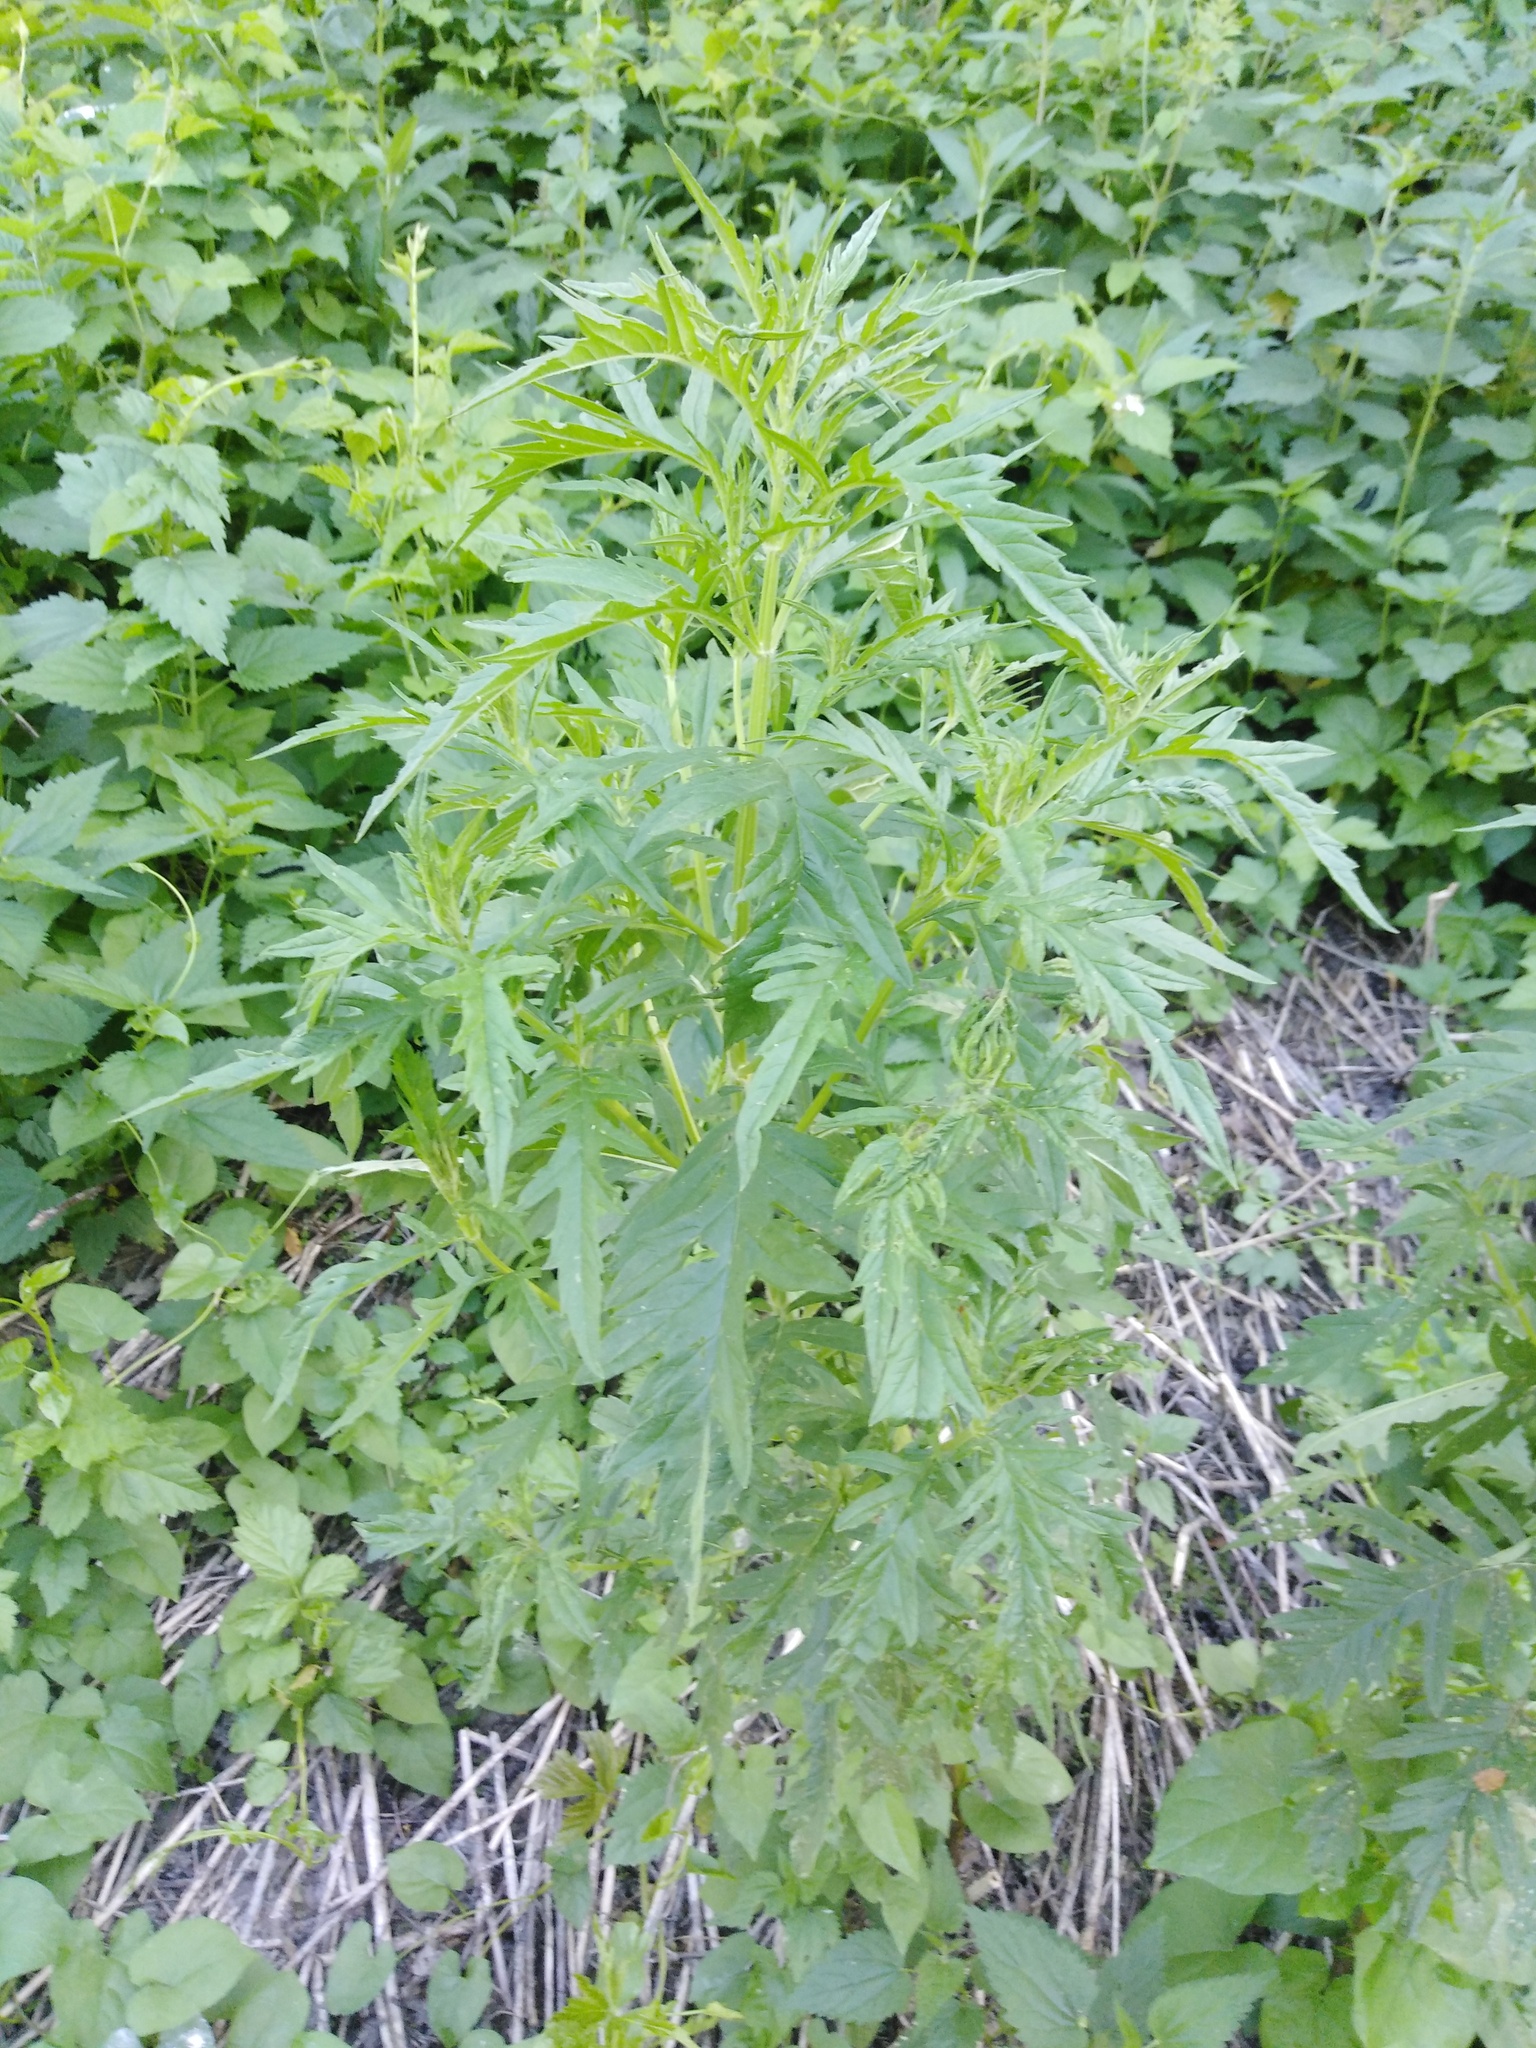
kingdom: Plantae
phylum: Tracheophyta
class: Magnoliopsida
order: Lamiales
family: Lamiaceae
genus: Lycopus
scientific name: Lycopus exaltatus
